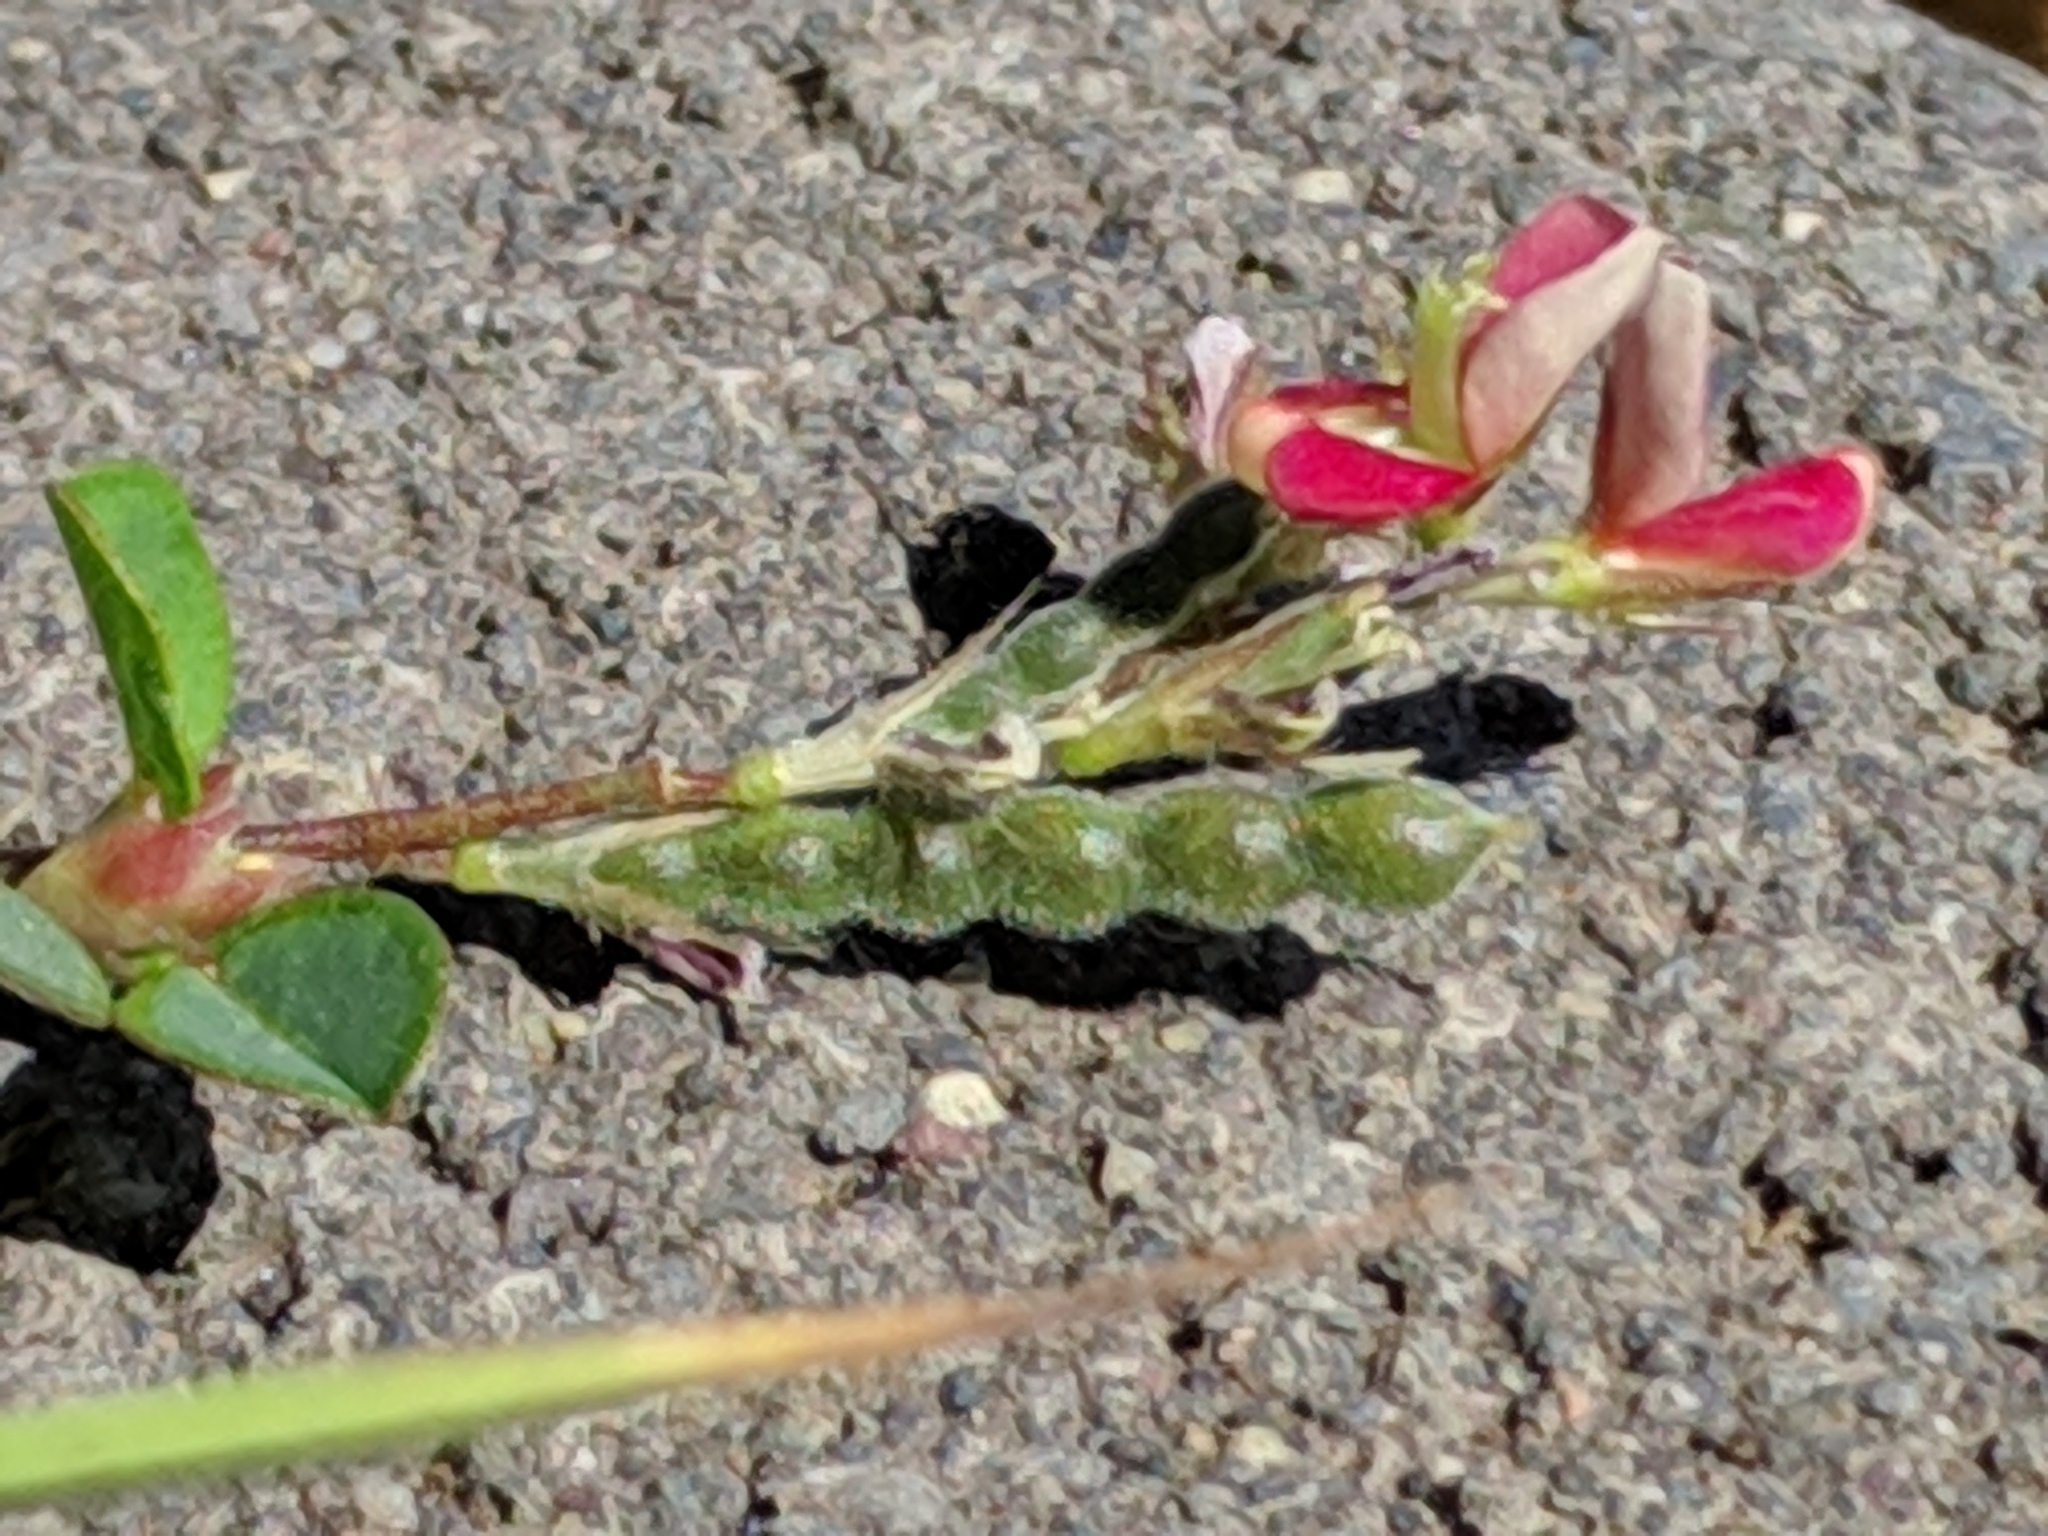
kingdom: Plantae
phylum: Tracheophyta
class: Magnoliopsida
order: Fabales
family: Fabaceae
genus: Alysicarpus
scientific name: Alysicarpus vaginalis
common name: White moneywort
